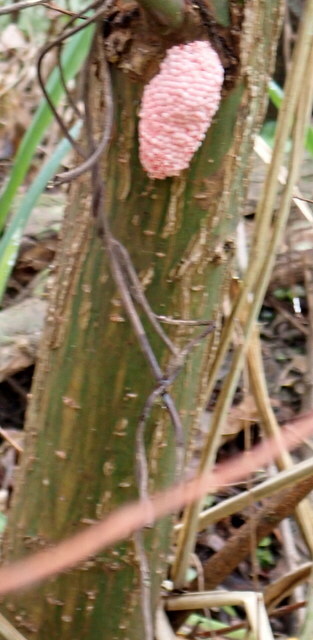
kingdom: Animalia
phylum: Mollusca
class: Gastropoda
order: Architaenioglossa
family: Ampullariidae
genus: Pomacea
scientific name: Pomacea maculata
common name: Giant applesnail
